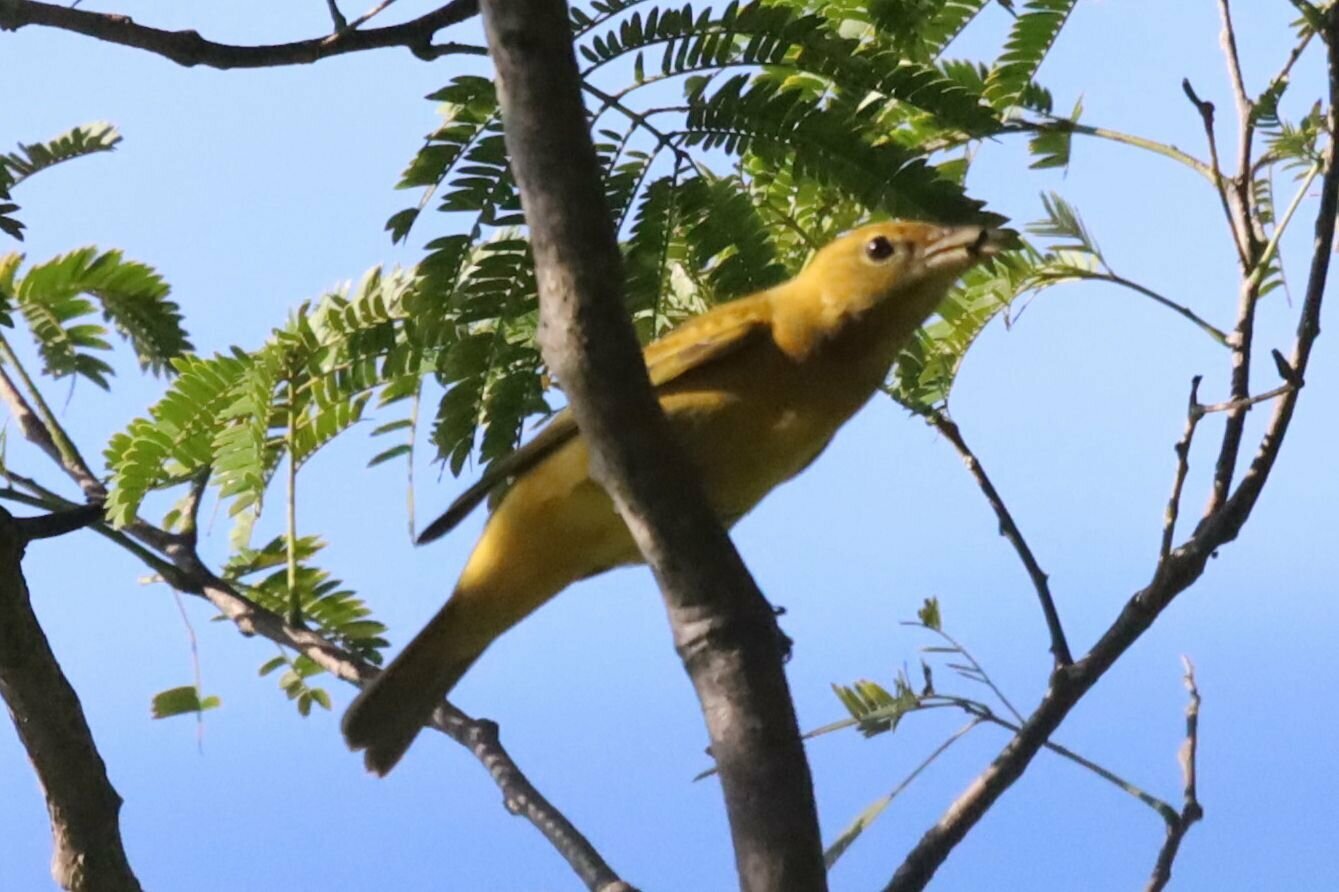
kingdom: Animalia
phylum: Chordata
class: Aves
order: Passeriformes
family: Cardinalidae
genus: Piranga
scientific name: Piranga rubra
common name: Summer tanager
